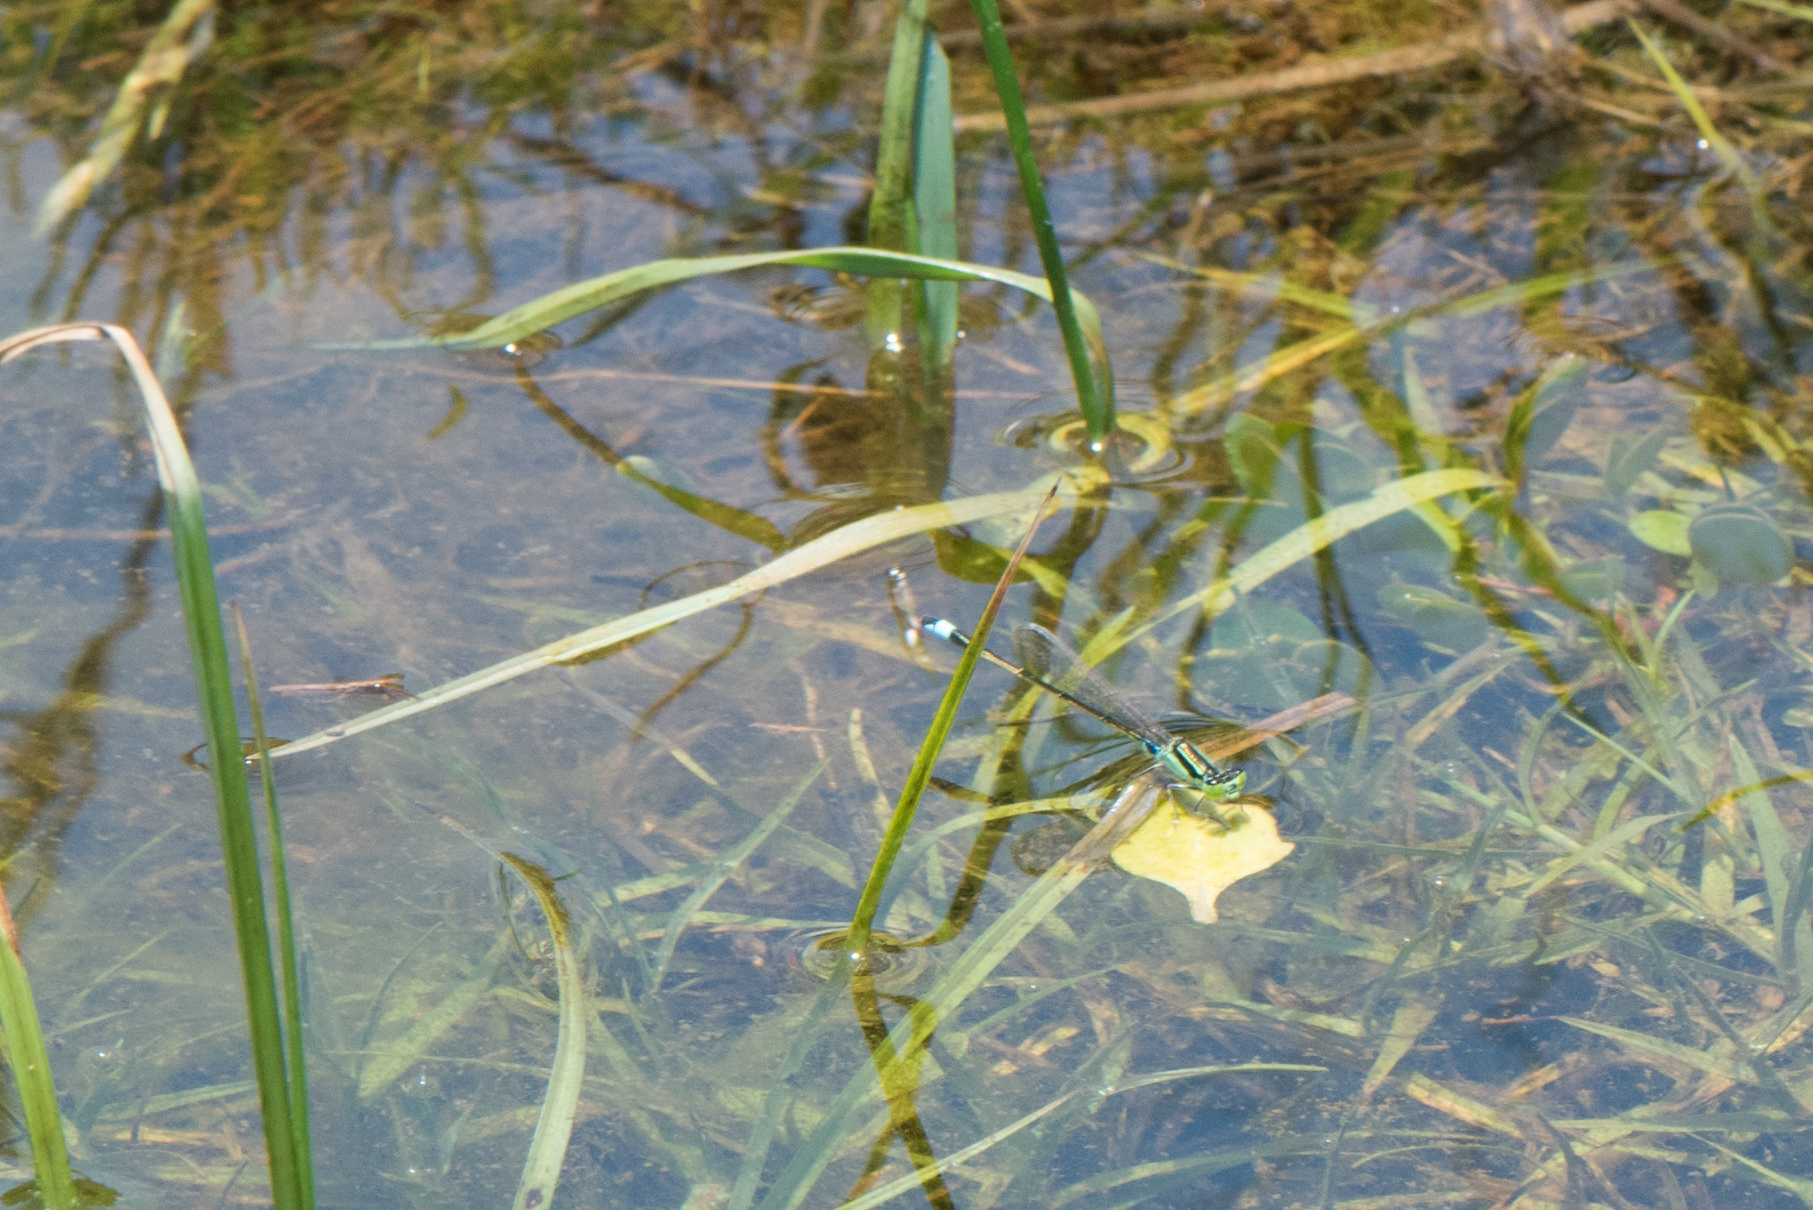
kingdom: Animalia
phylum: Arthropoda
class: Insecta
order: Odonata
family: Coenagrionidae
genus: Ischnura
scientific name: Ischnura senegalensis
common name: Tropical bluetail
